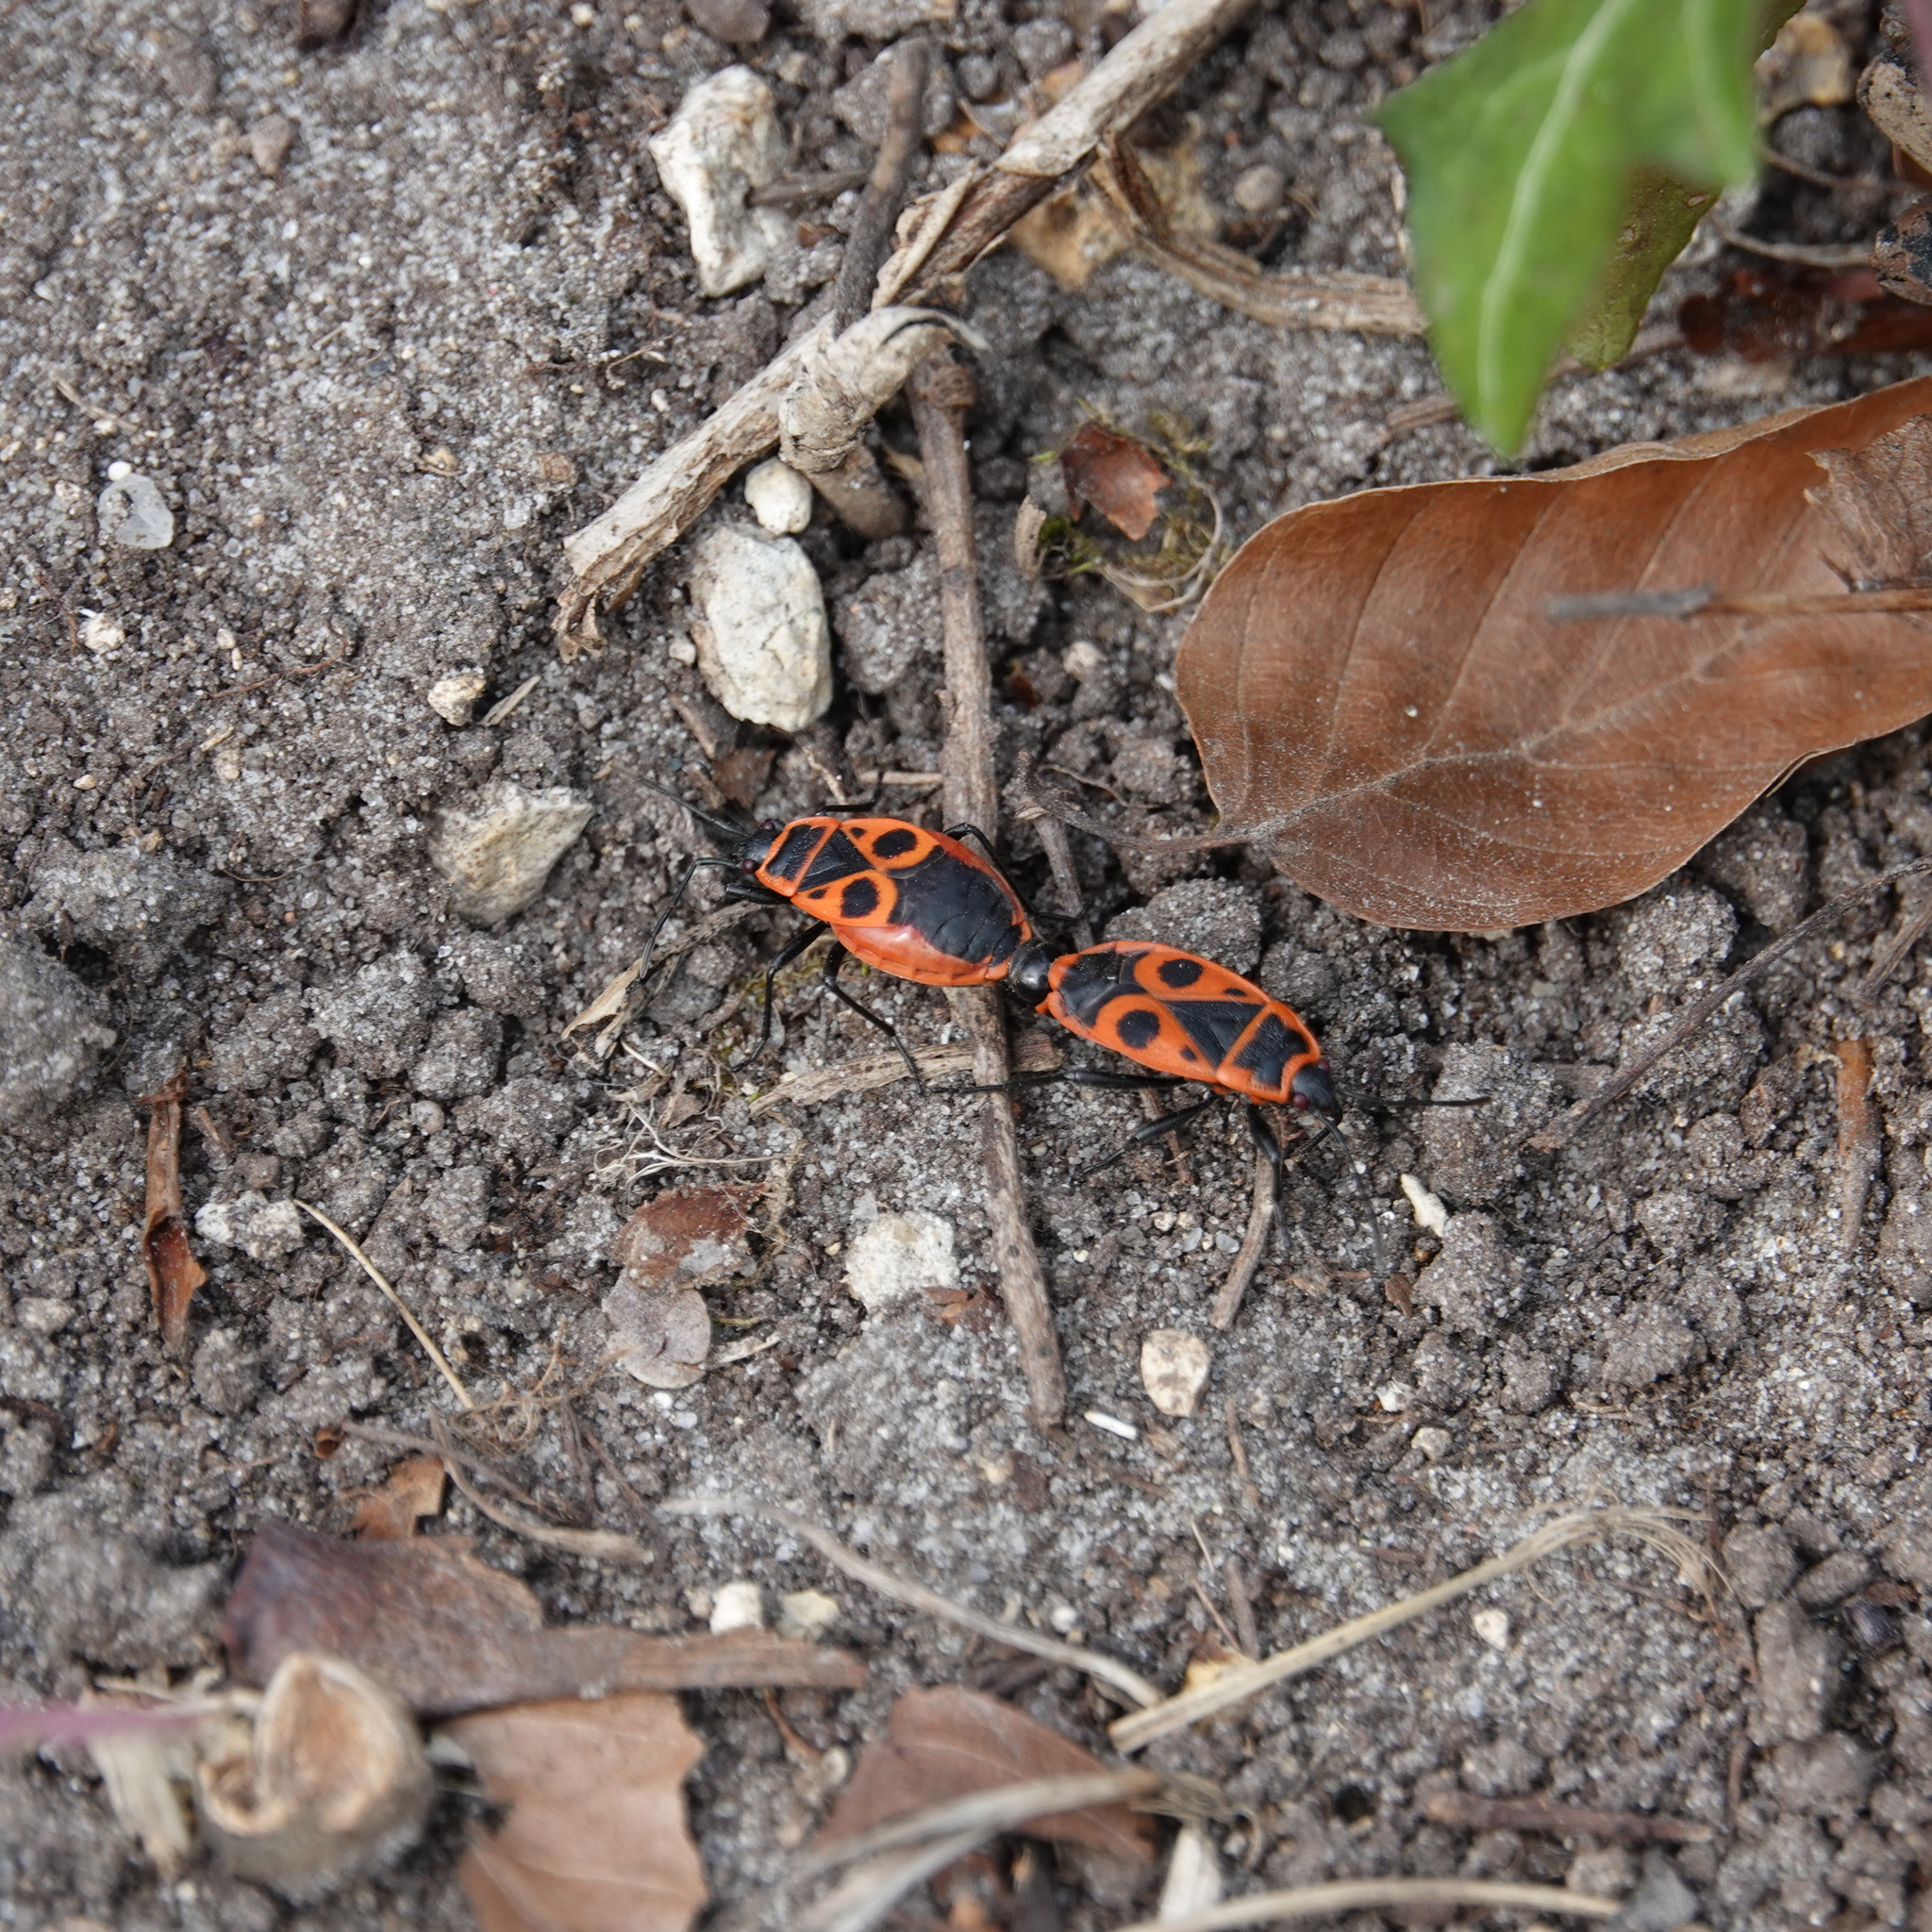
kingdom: Animalia
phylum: Arthropoda
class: Insecta
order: Hemiptera
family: Pyrrhocoridae
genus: Pyrrhocoris
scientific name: Pyrrhocoris apterus
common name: Firebug
